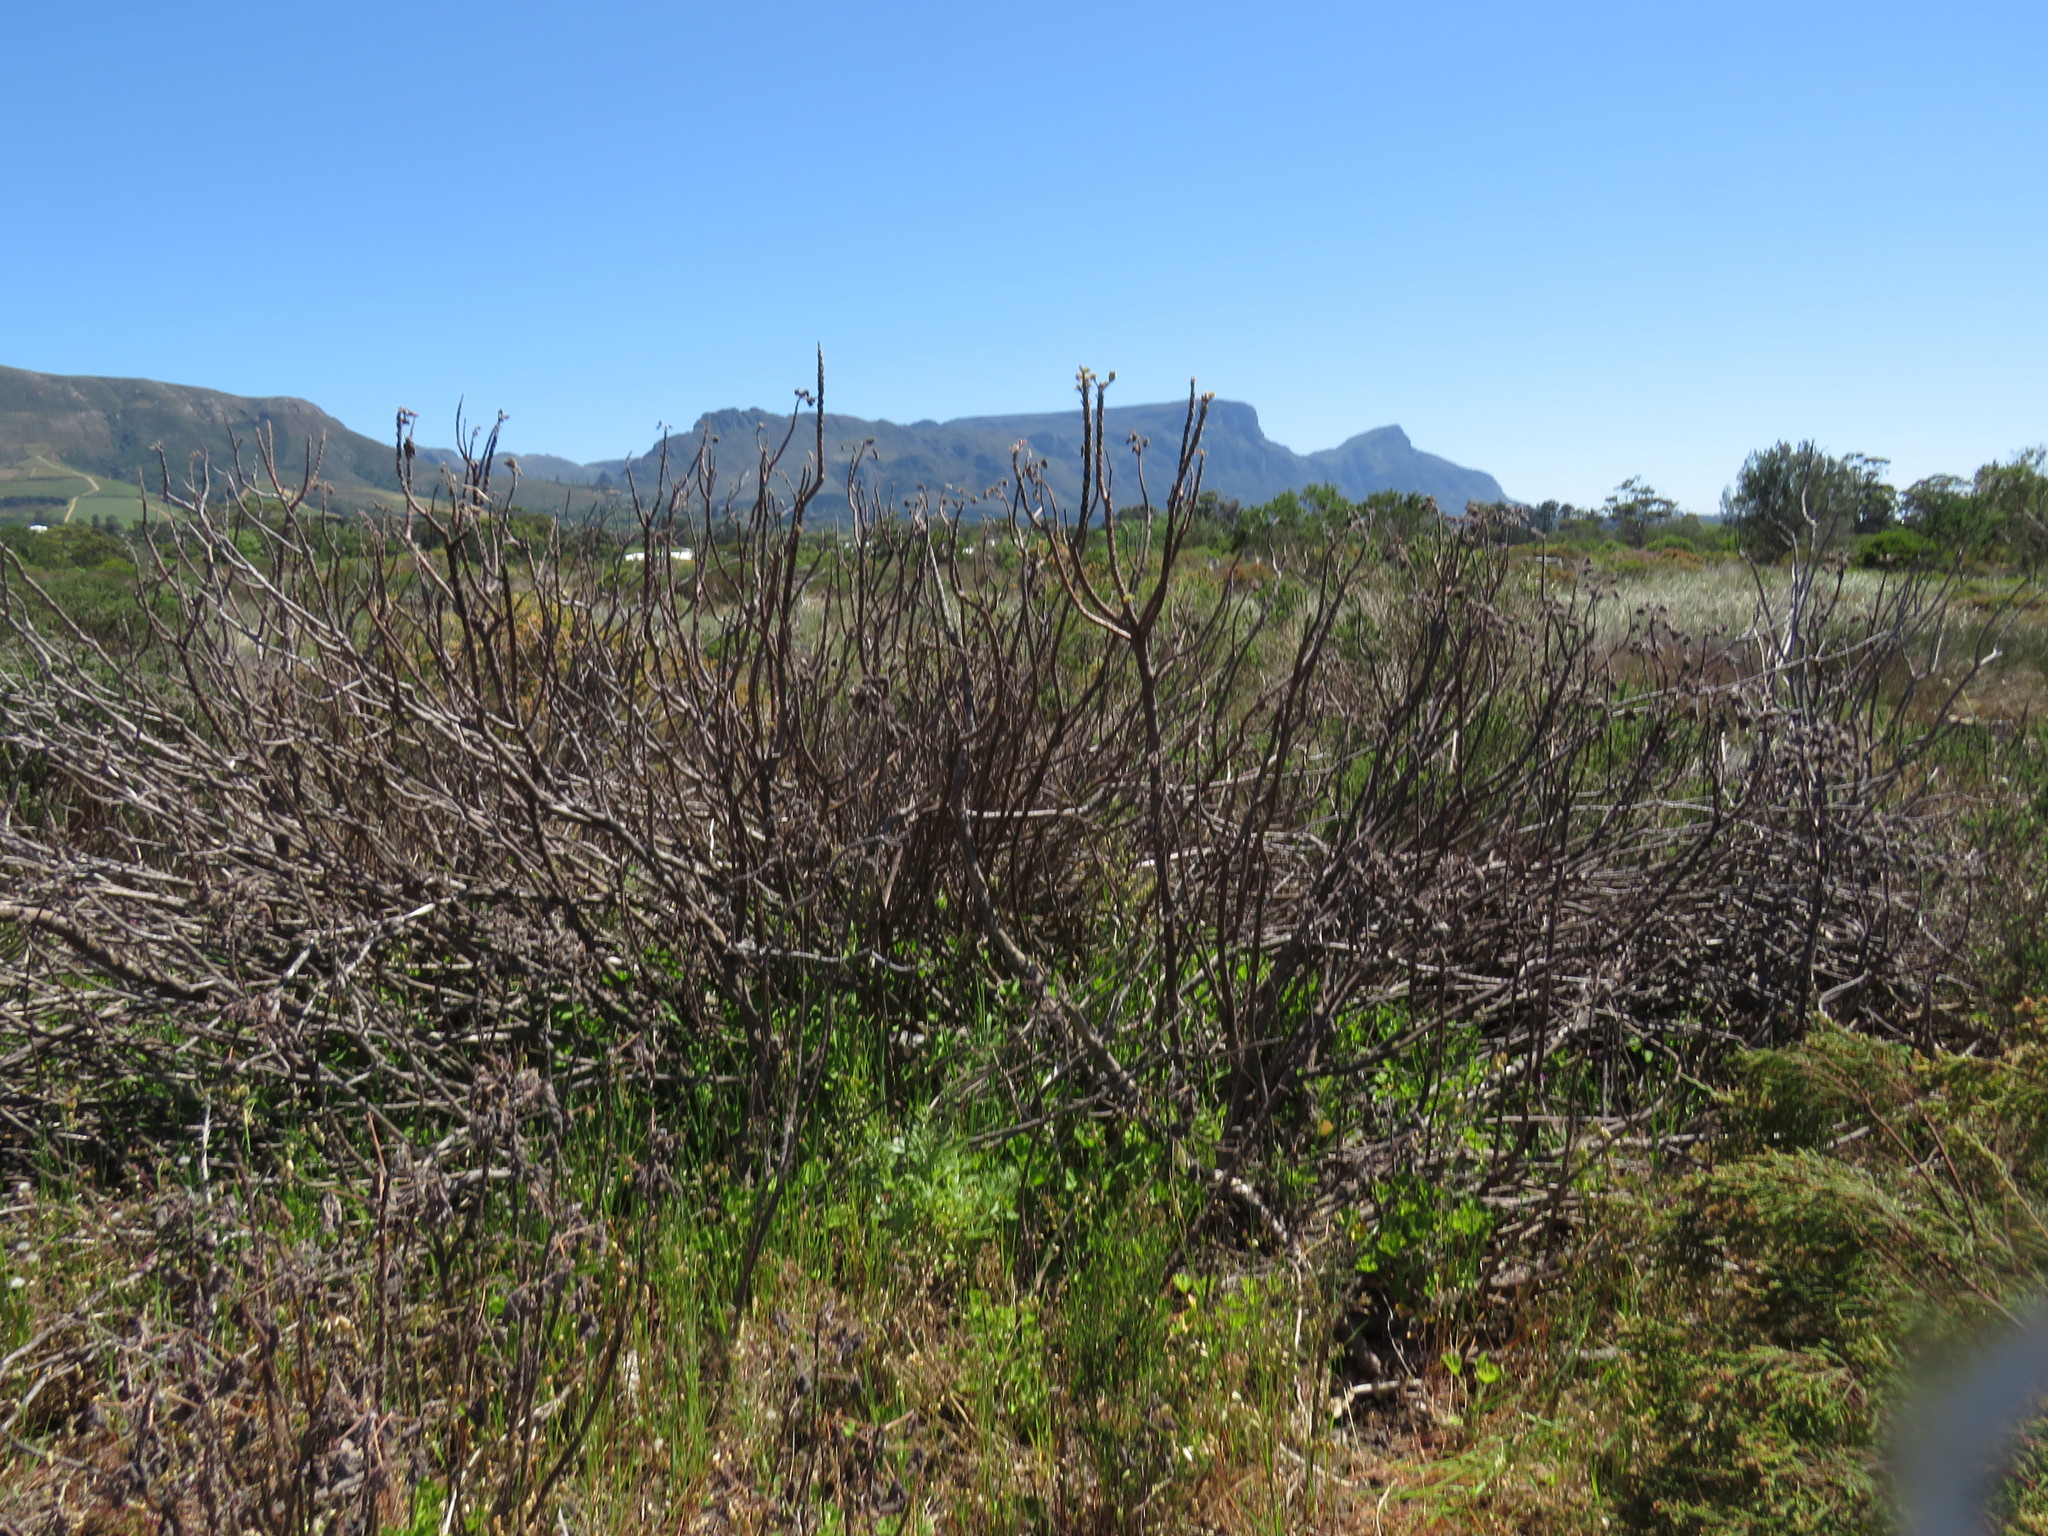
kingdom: Plantae
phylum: Tracheophyta
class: Magnoliopsida
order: Geraniales
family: Geraniaceae
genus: Pelargonium
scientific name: Pelargonium cucullatum
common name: Tree pelargonium
